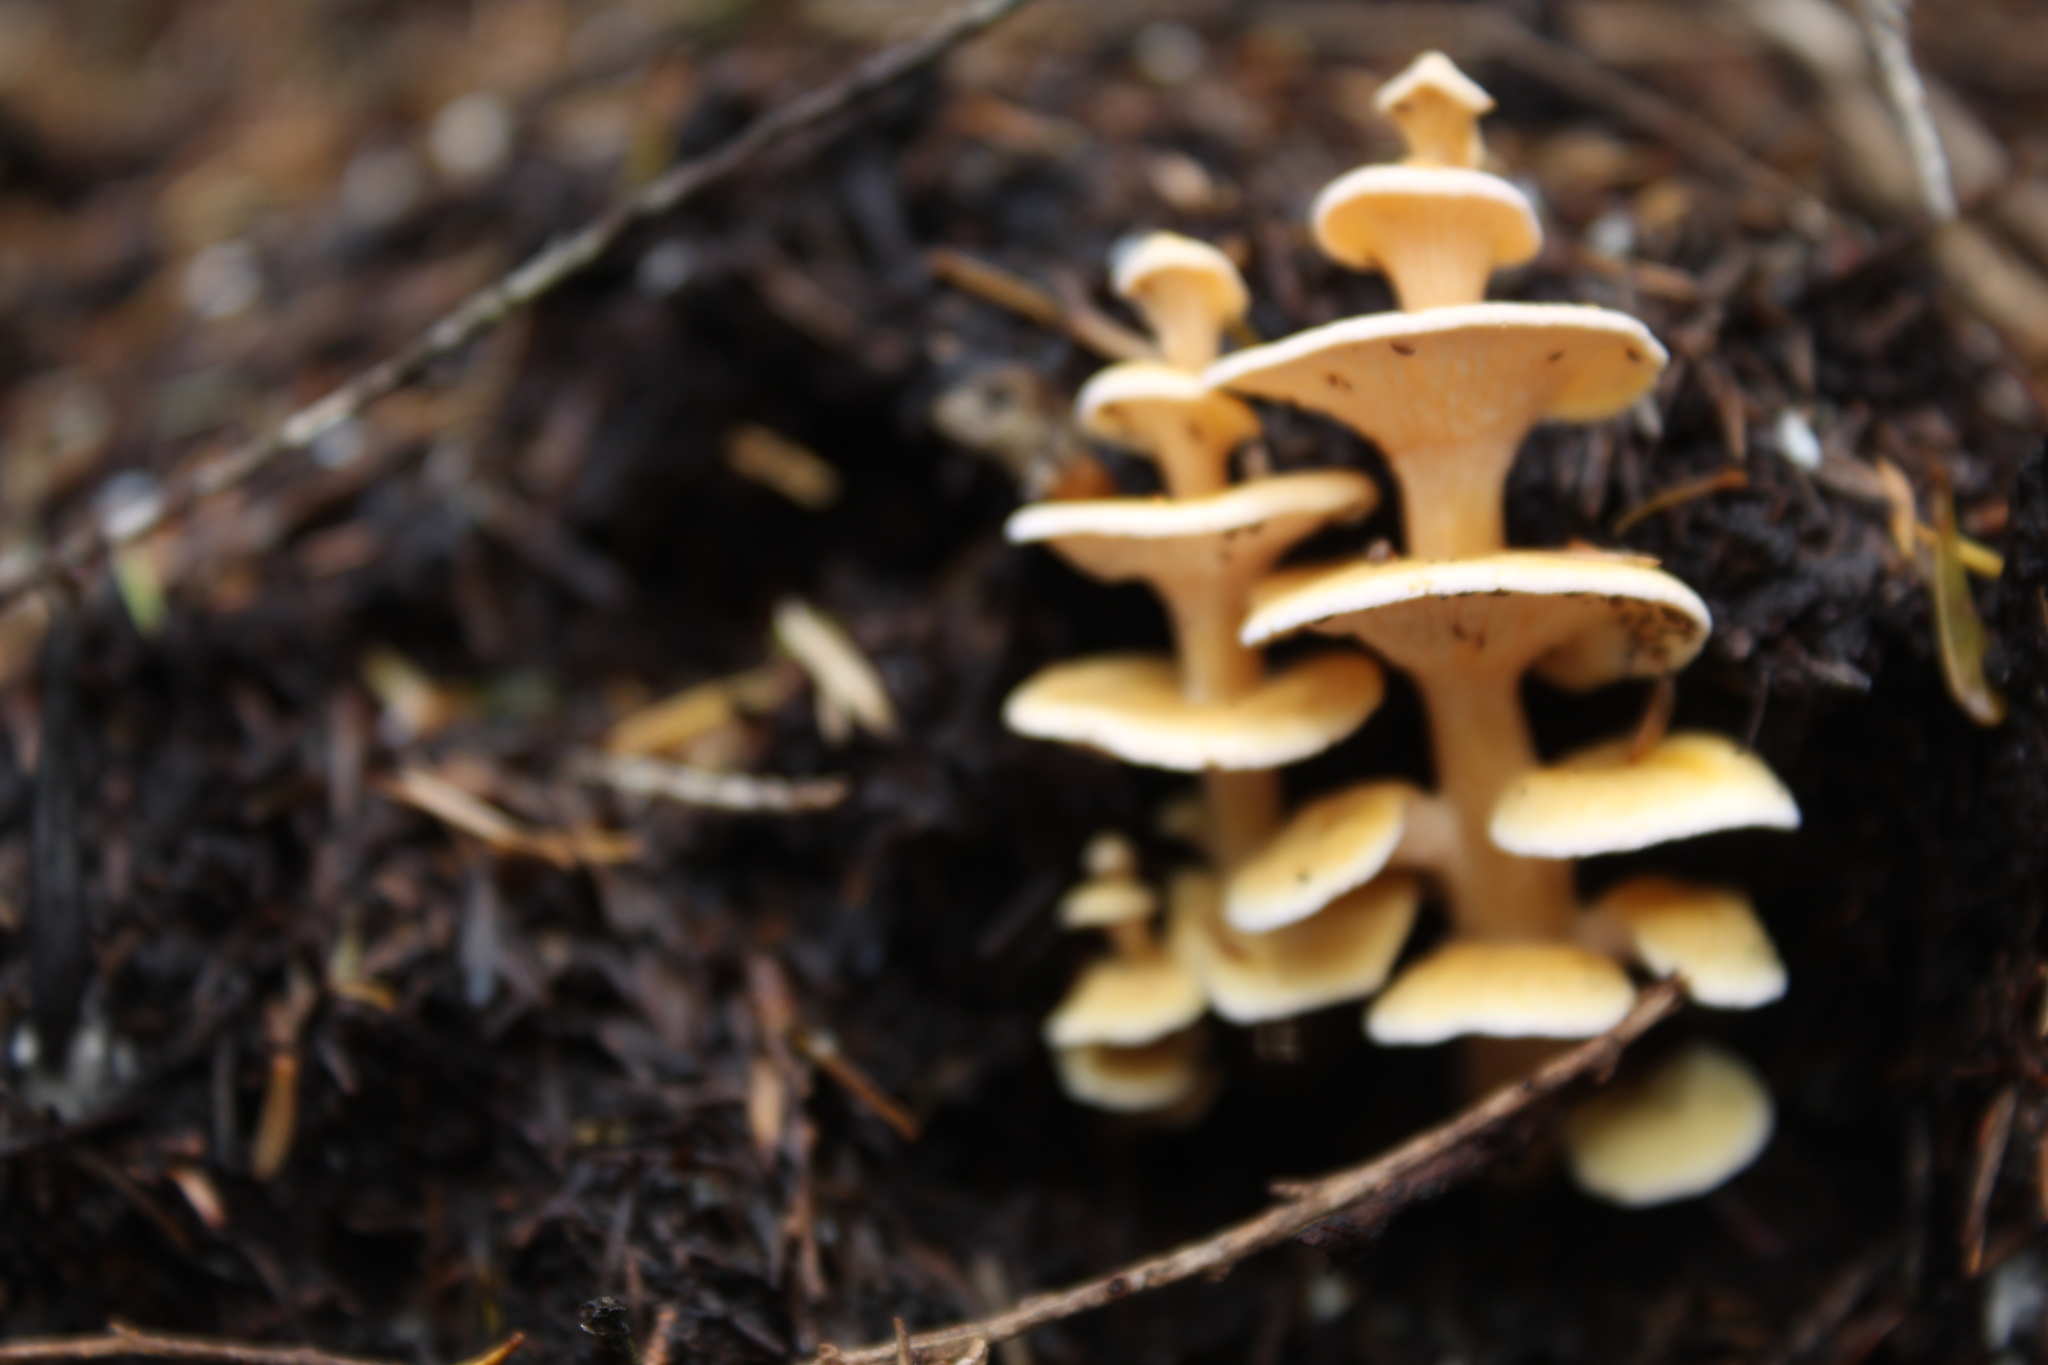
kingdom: Fungi
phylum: Basidiomycota
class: Agaricomycetes
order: Amylocorticiales
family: Amylocorticiaceae
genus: Podoserpula
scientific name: Podoserpula pusio
